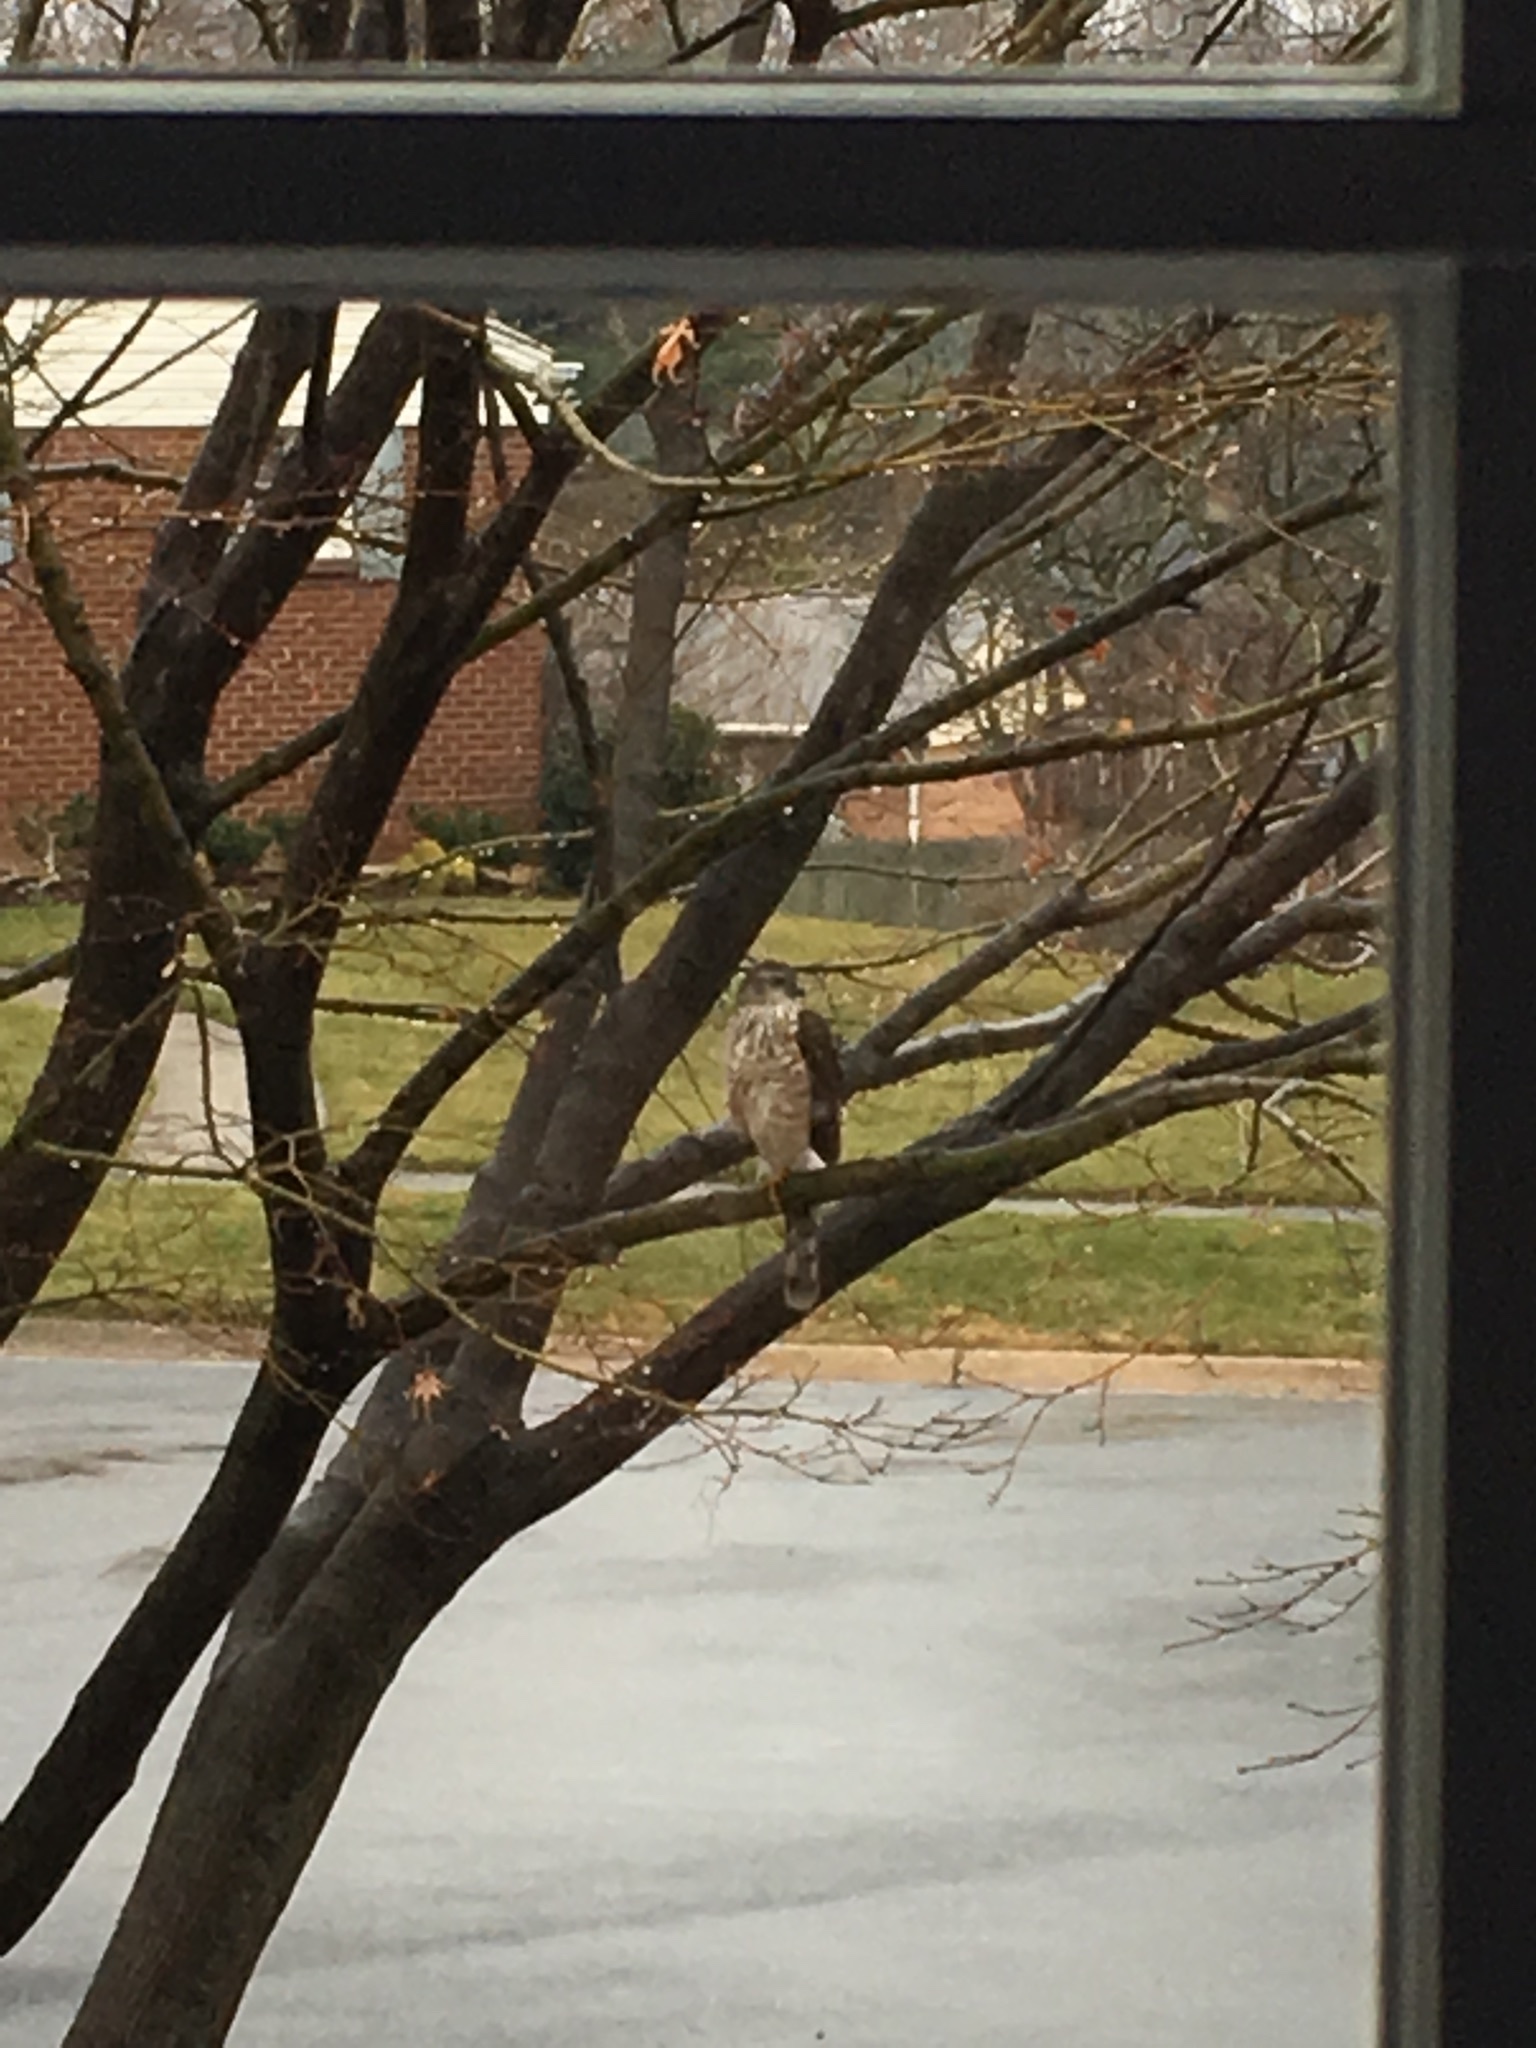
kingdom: Animalia
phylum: Chordata
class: Aves
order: Accipitriformes
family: Accipitridae
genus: Accipiter
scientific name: Accipiter striatus
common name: Sharp-shinned hawk
